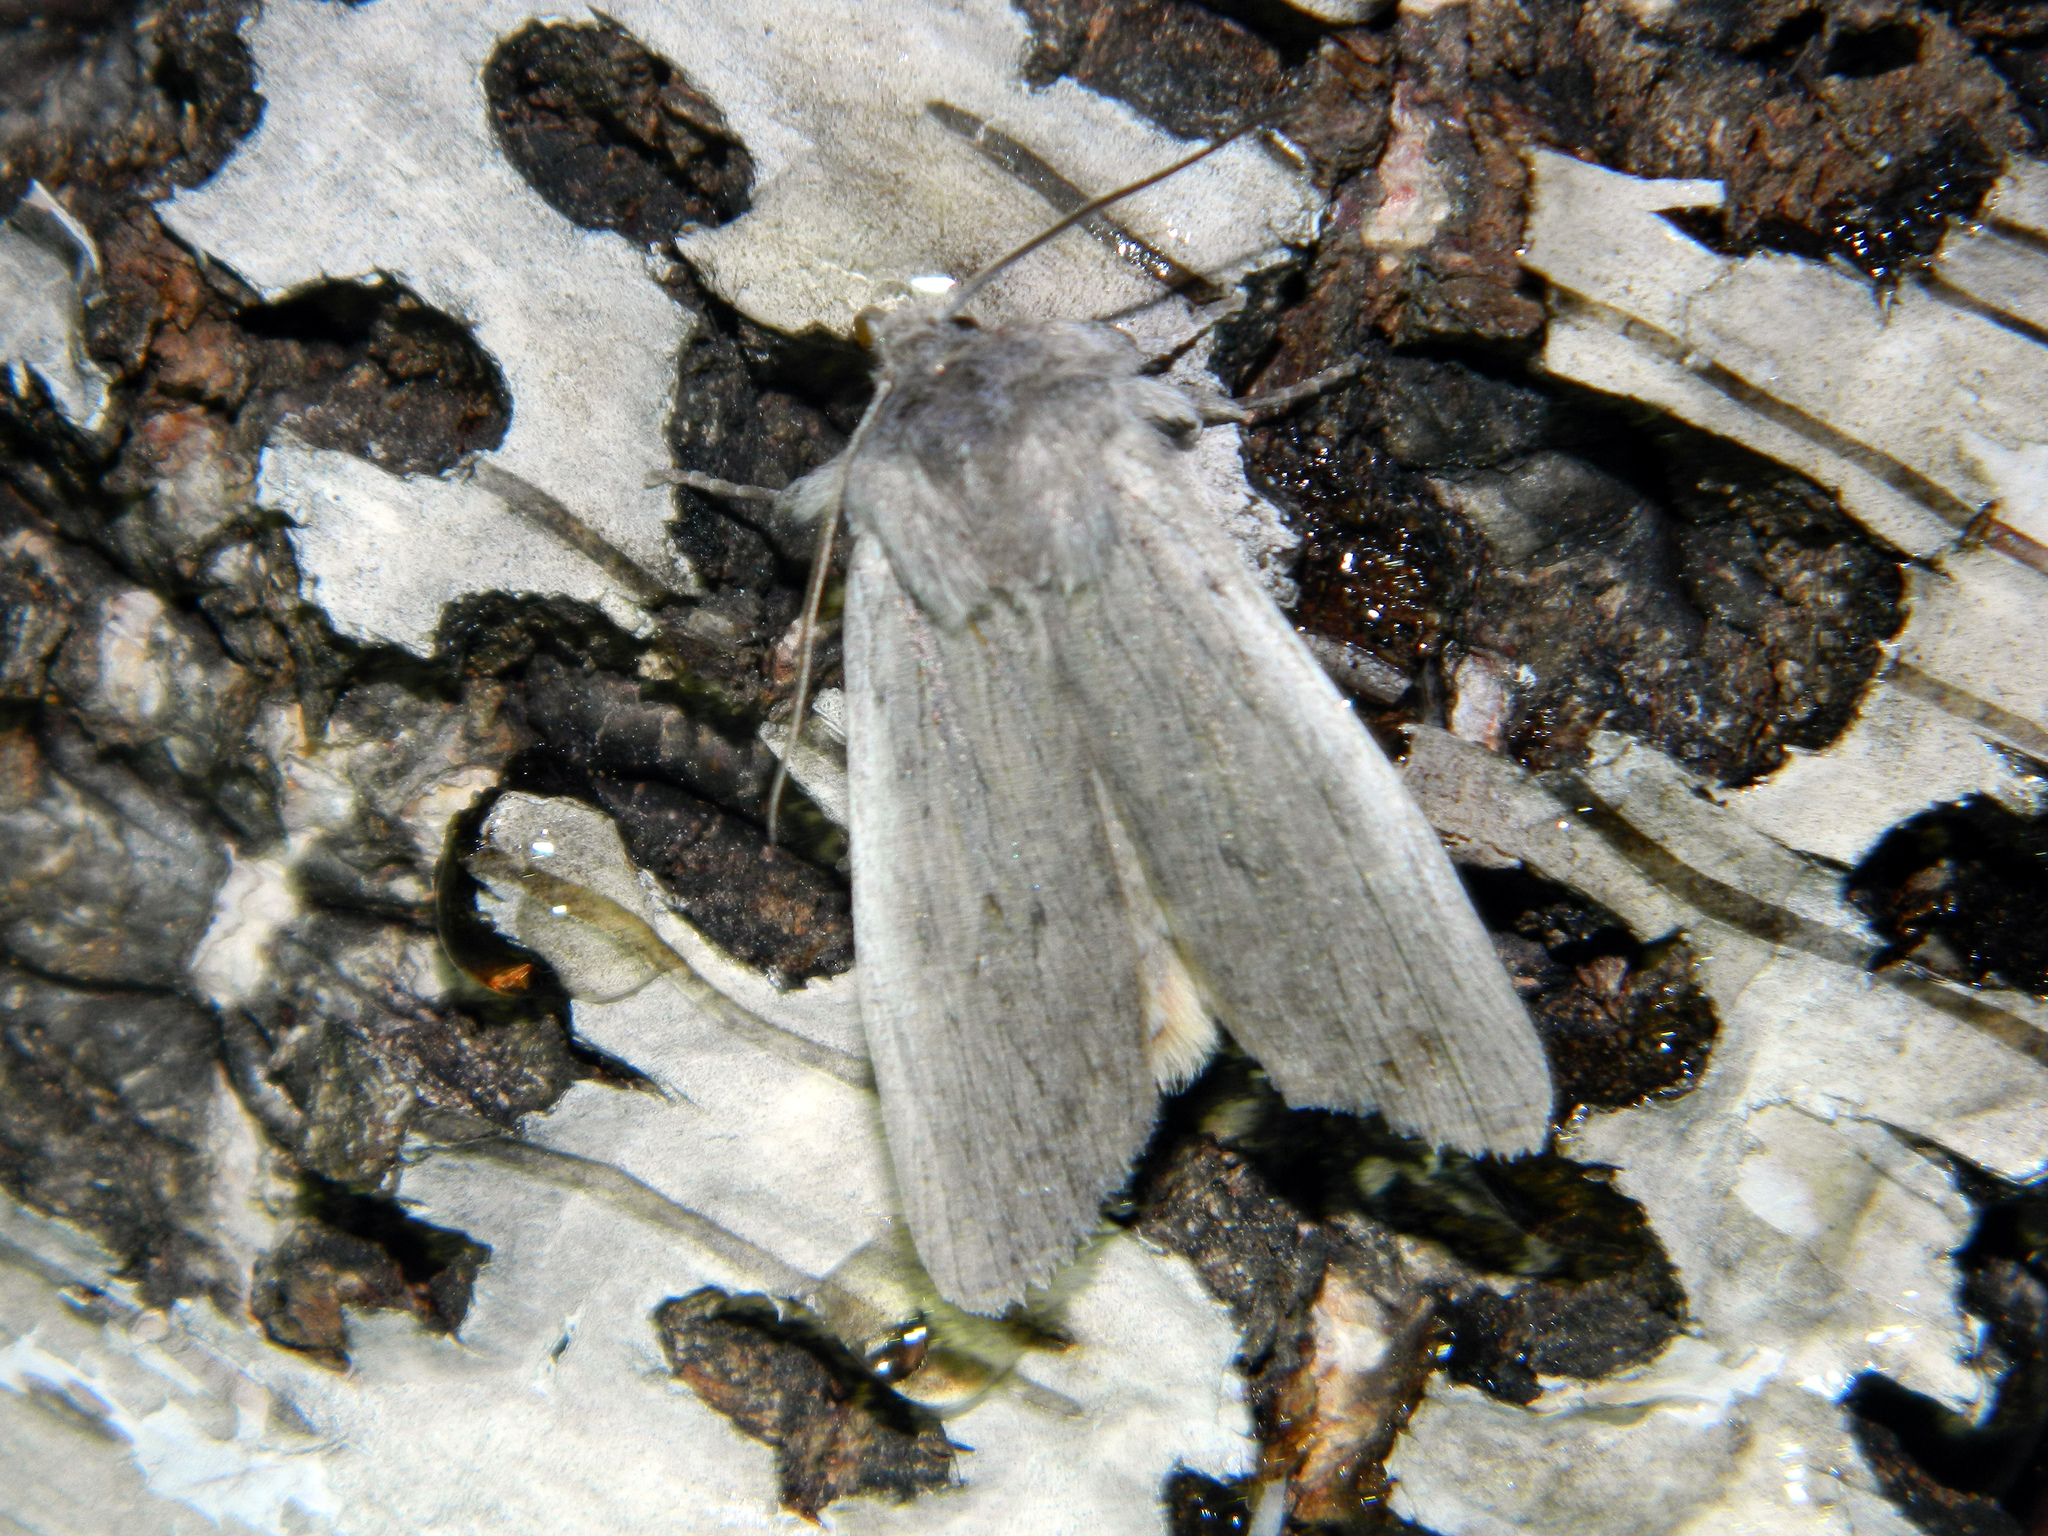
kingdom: Animalia
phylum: Arthropoda
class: Insecta
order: Lepidoptera
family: Noctuidae
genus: Lithophane
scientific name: Lithophane fagina
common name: Hoary pinion moth
